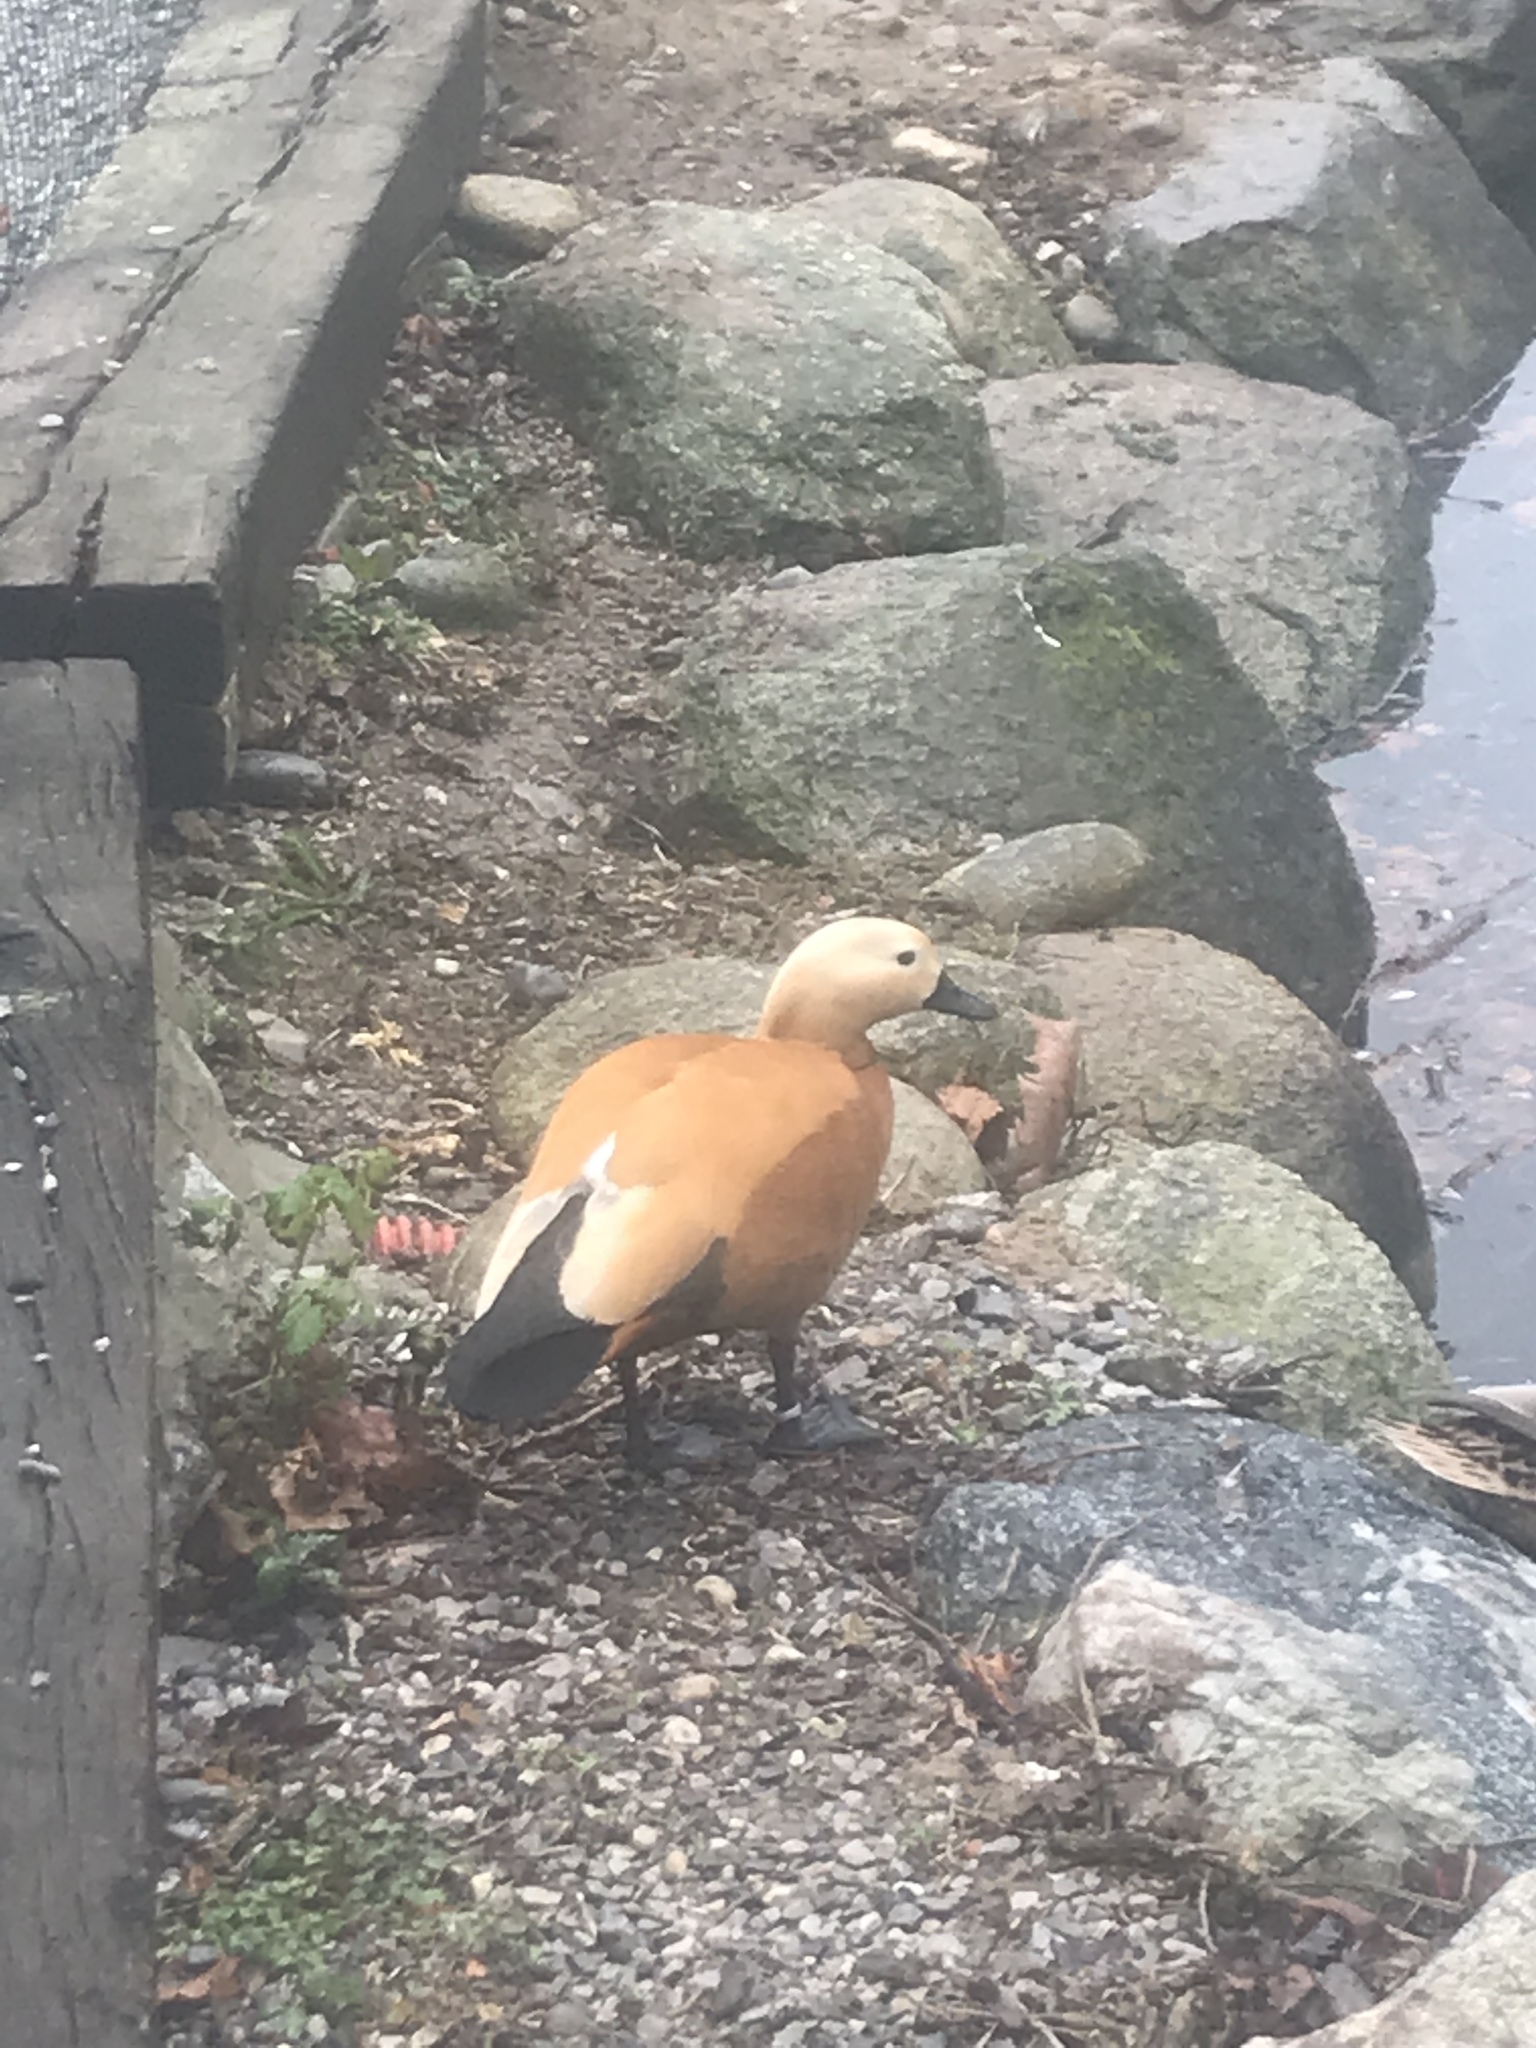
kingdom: Animalia
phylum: Chordata
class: Aves
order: Anseriformes
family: Anatidae
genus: Tadorna
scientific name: Tadorna ferruginea
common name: Ruddy shelduck
